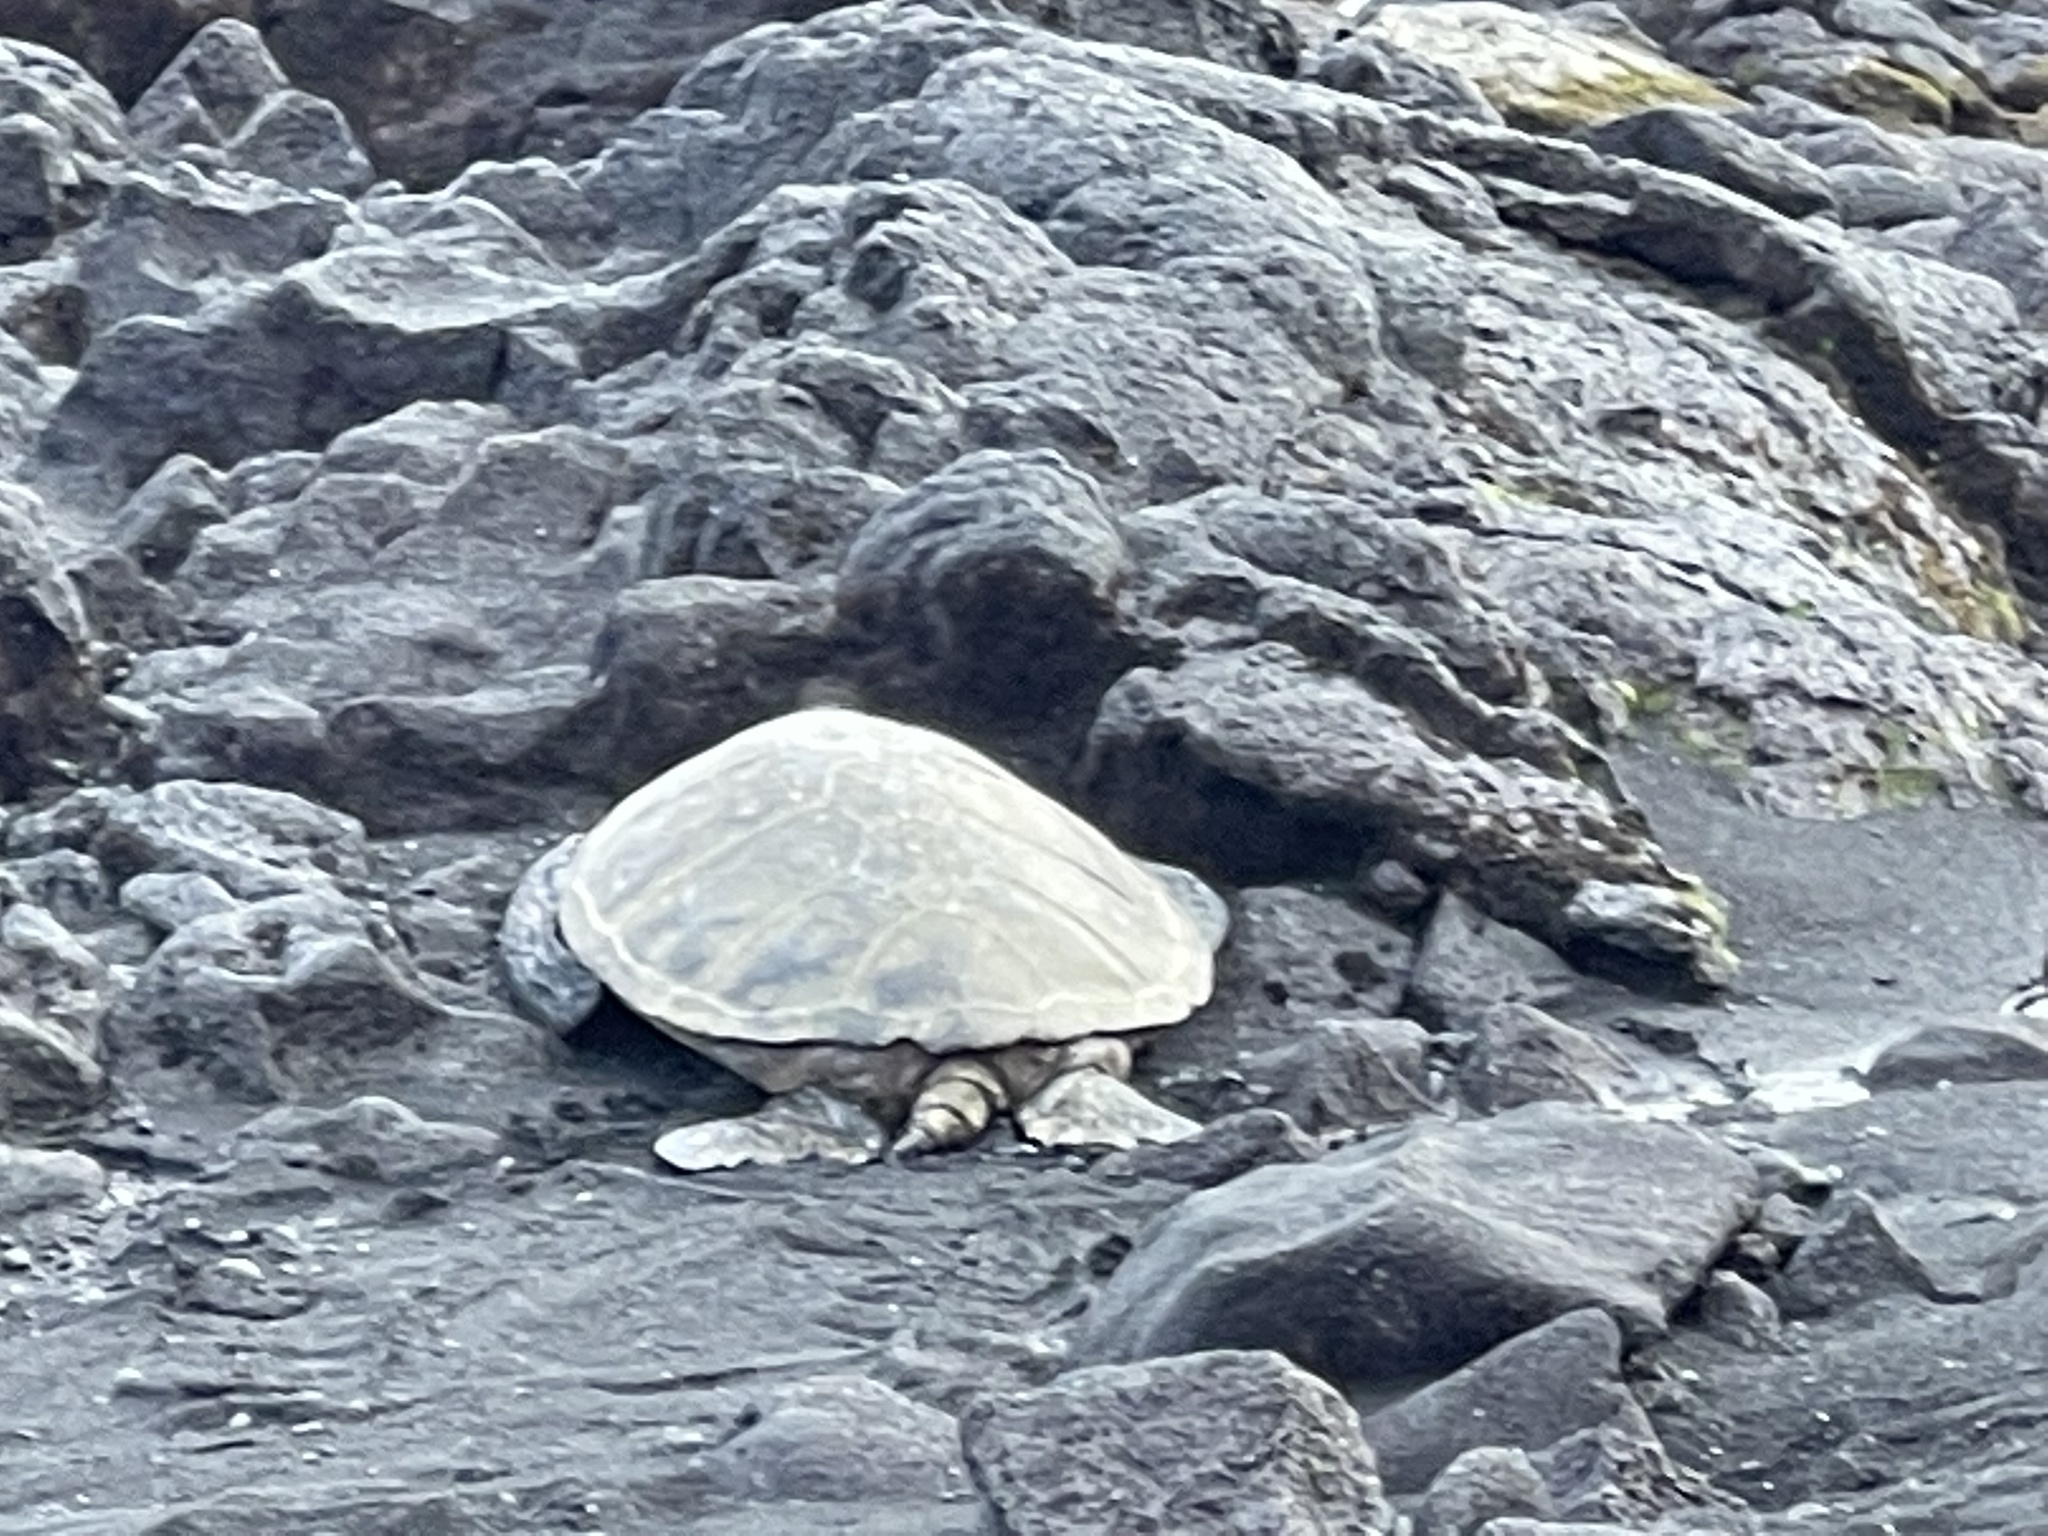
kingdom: Animalia
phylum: Chordata
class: Testudines
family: Cheloniidae
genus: Chelonia
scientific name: Chelonia mydas
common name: Green turtle
